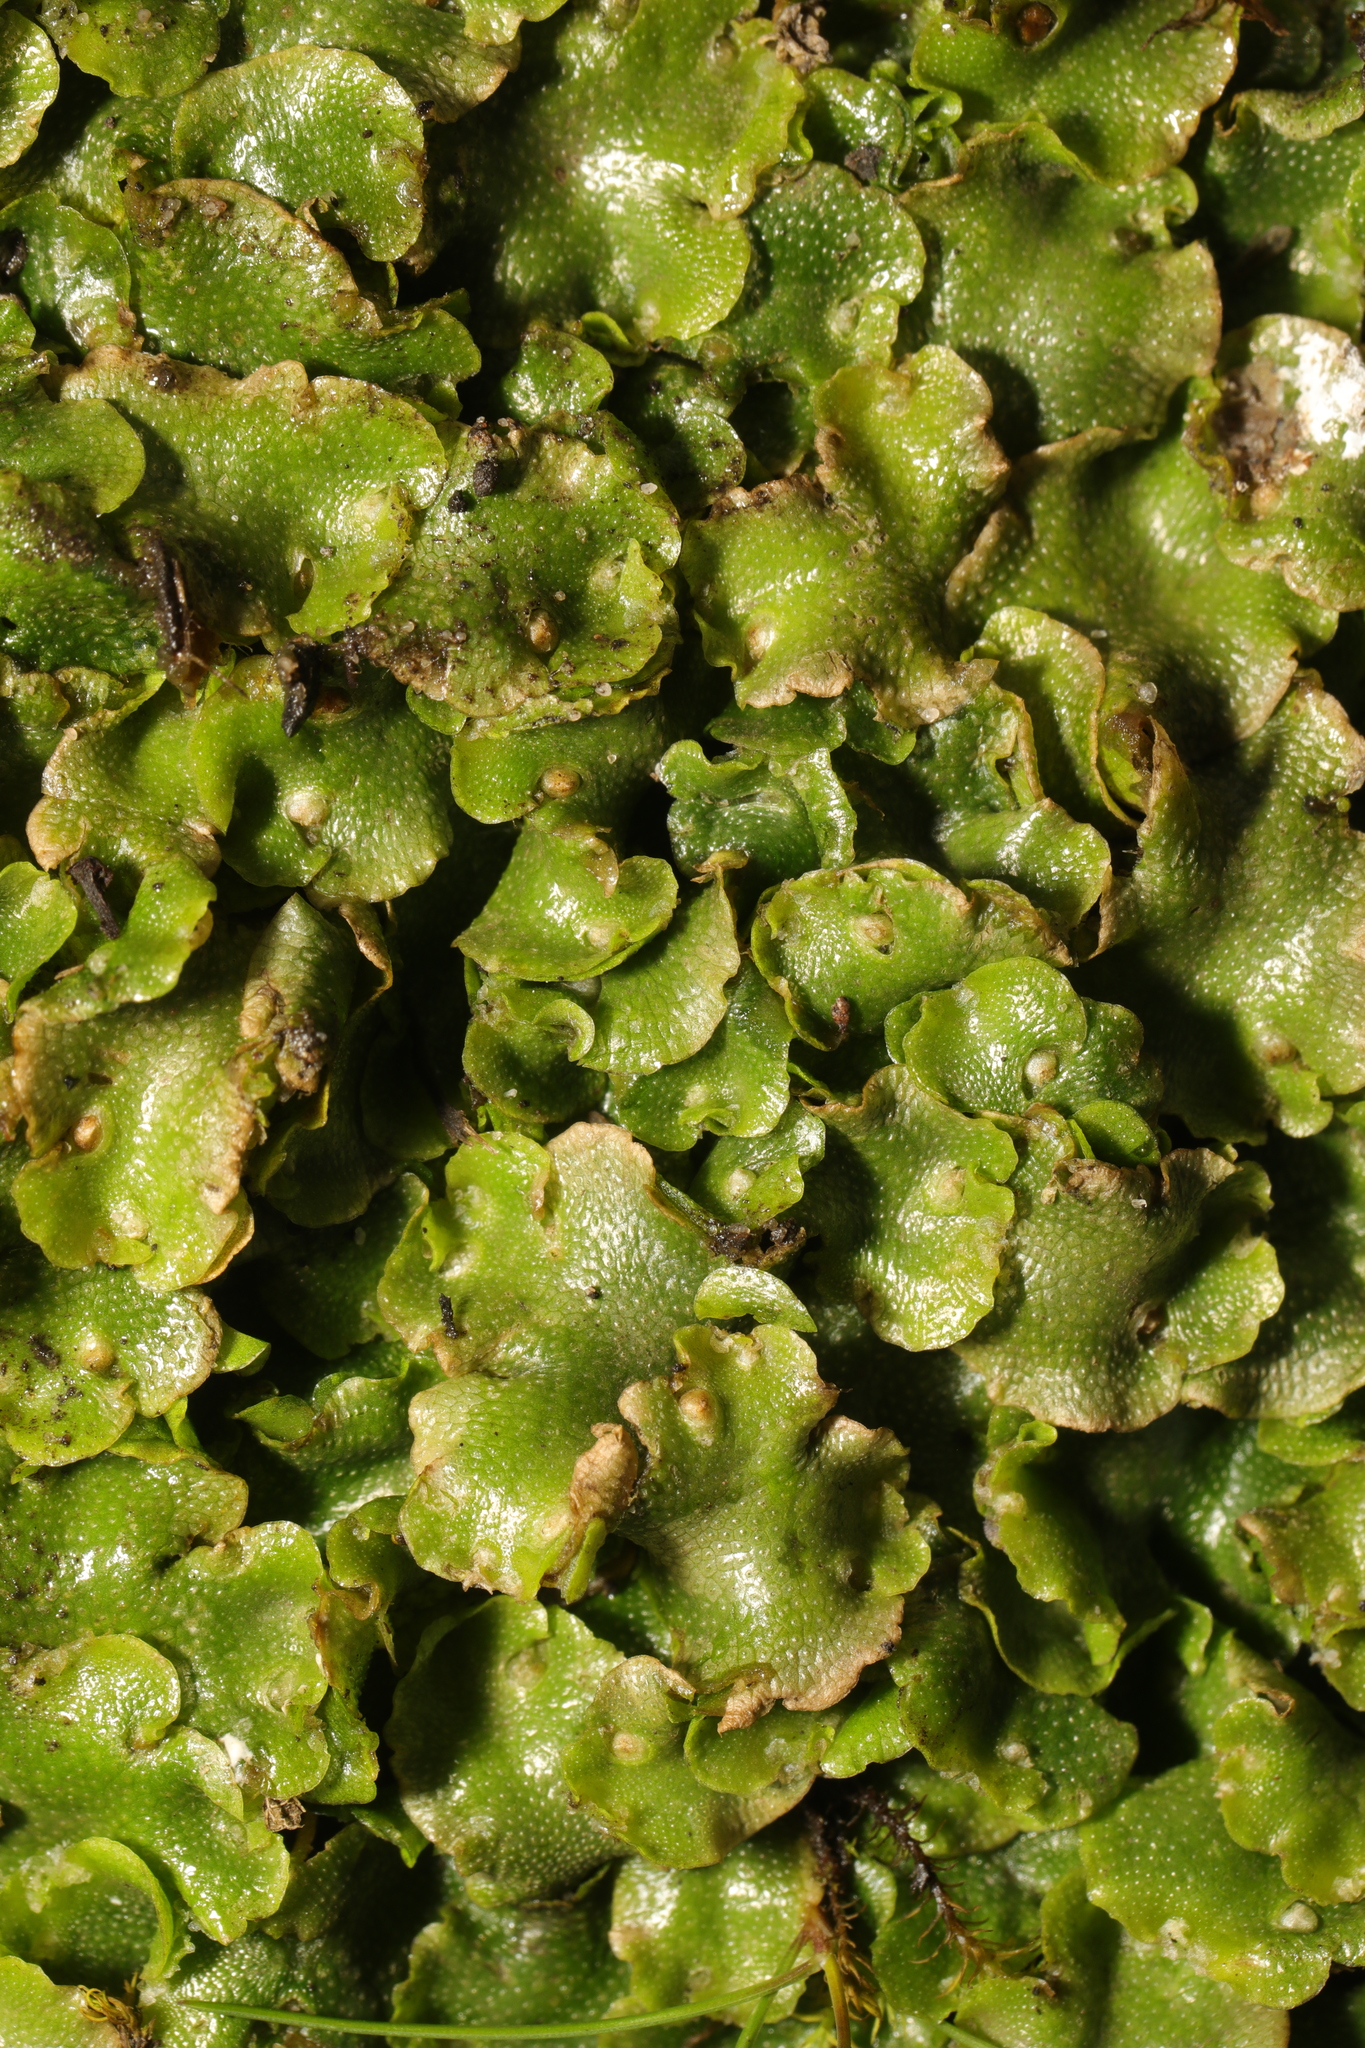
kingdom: Plantae
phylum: Marchantiophyta
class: Marchantiopsida
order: Lunulariales
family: Lunulariaceae
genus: Lunularia
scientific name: Lunularia cruciata
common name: Crescent-cup liverwort
